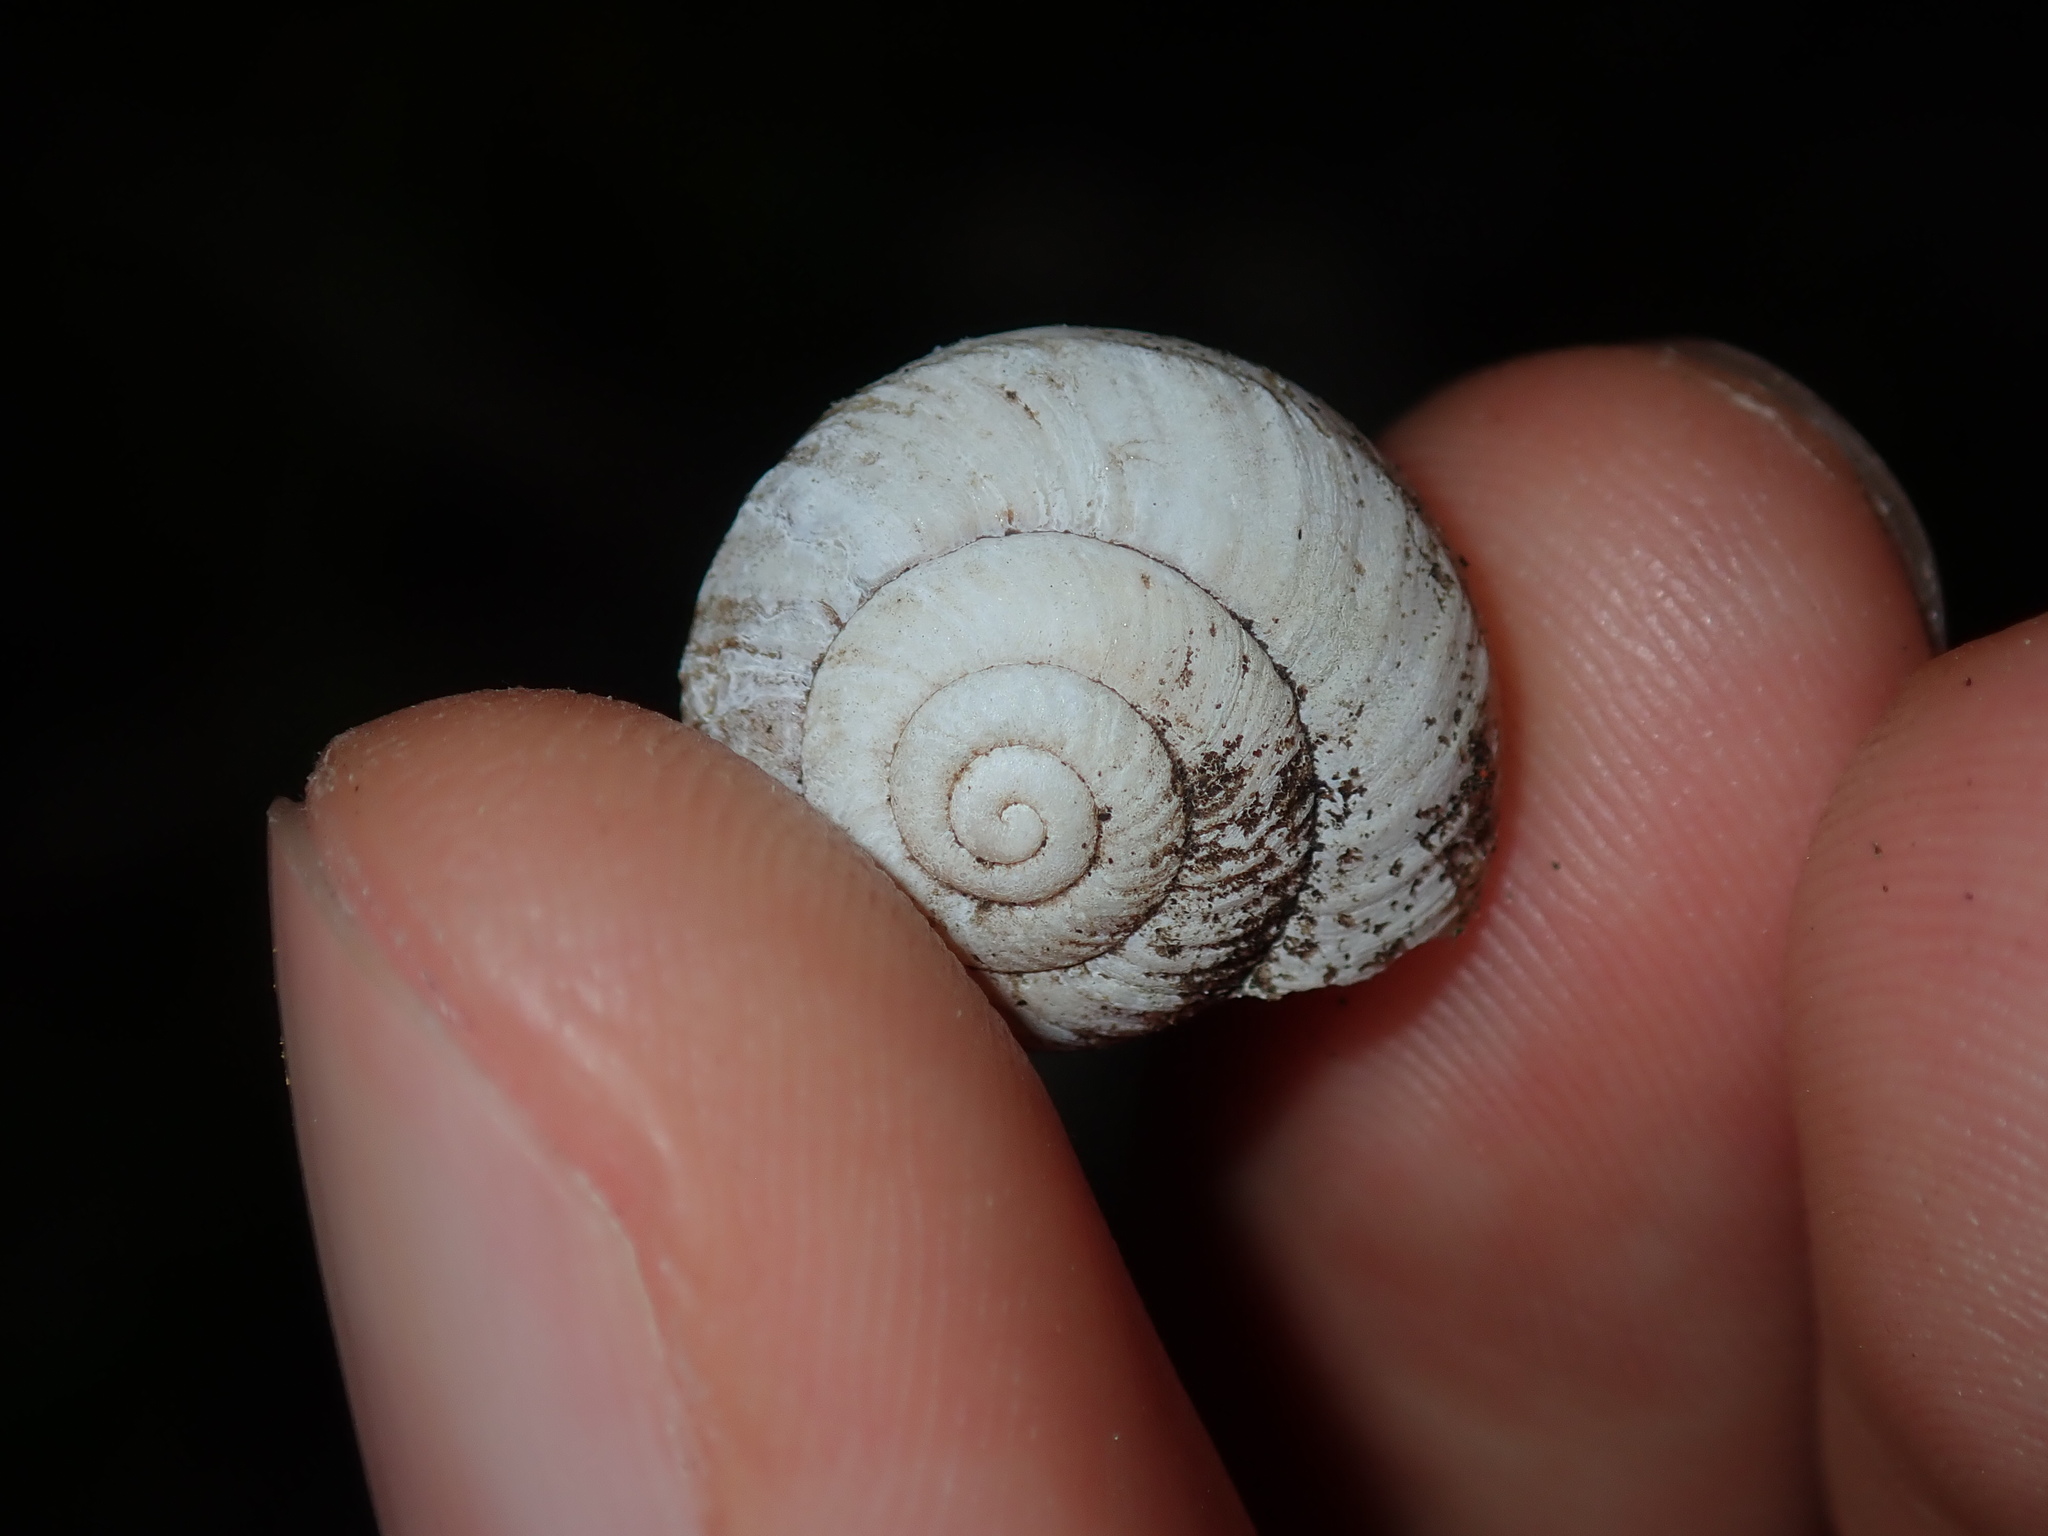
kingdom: Animalia
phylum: Mollusca
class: Gastropoda
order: Stylommatophora
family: Camaenidae
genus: Sauroconcha
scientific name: Sauroconcha sheai
